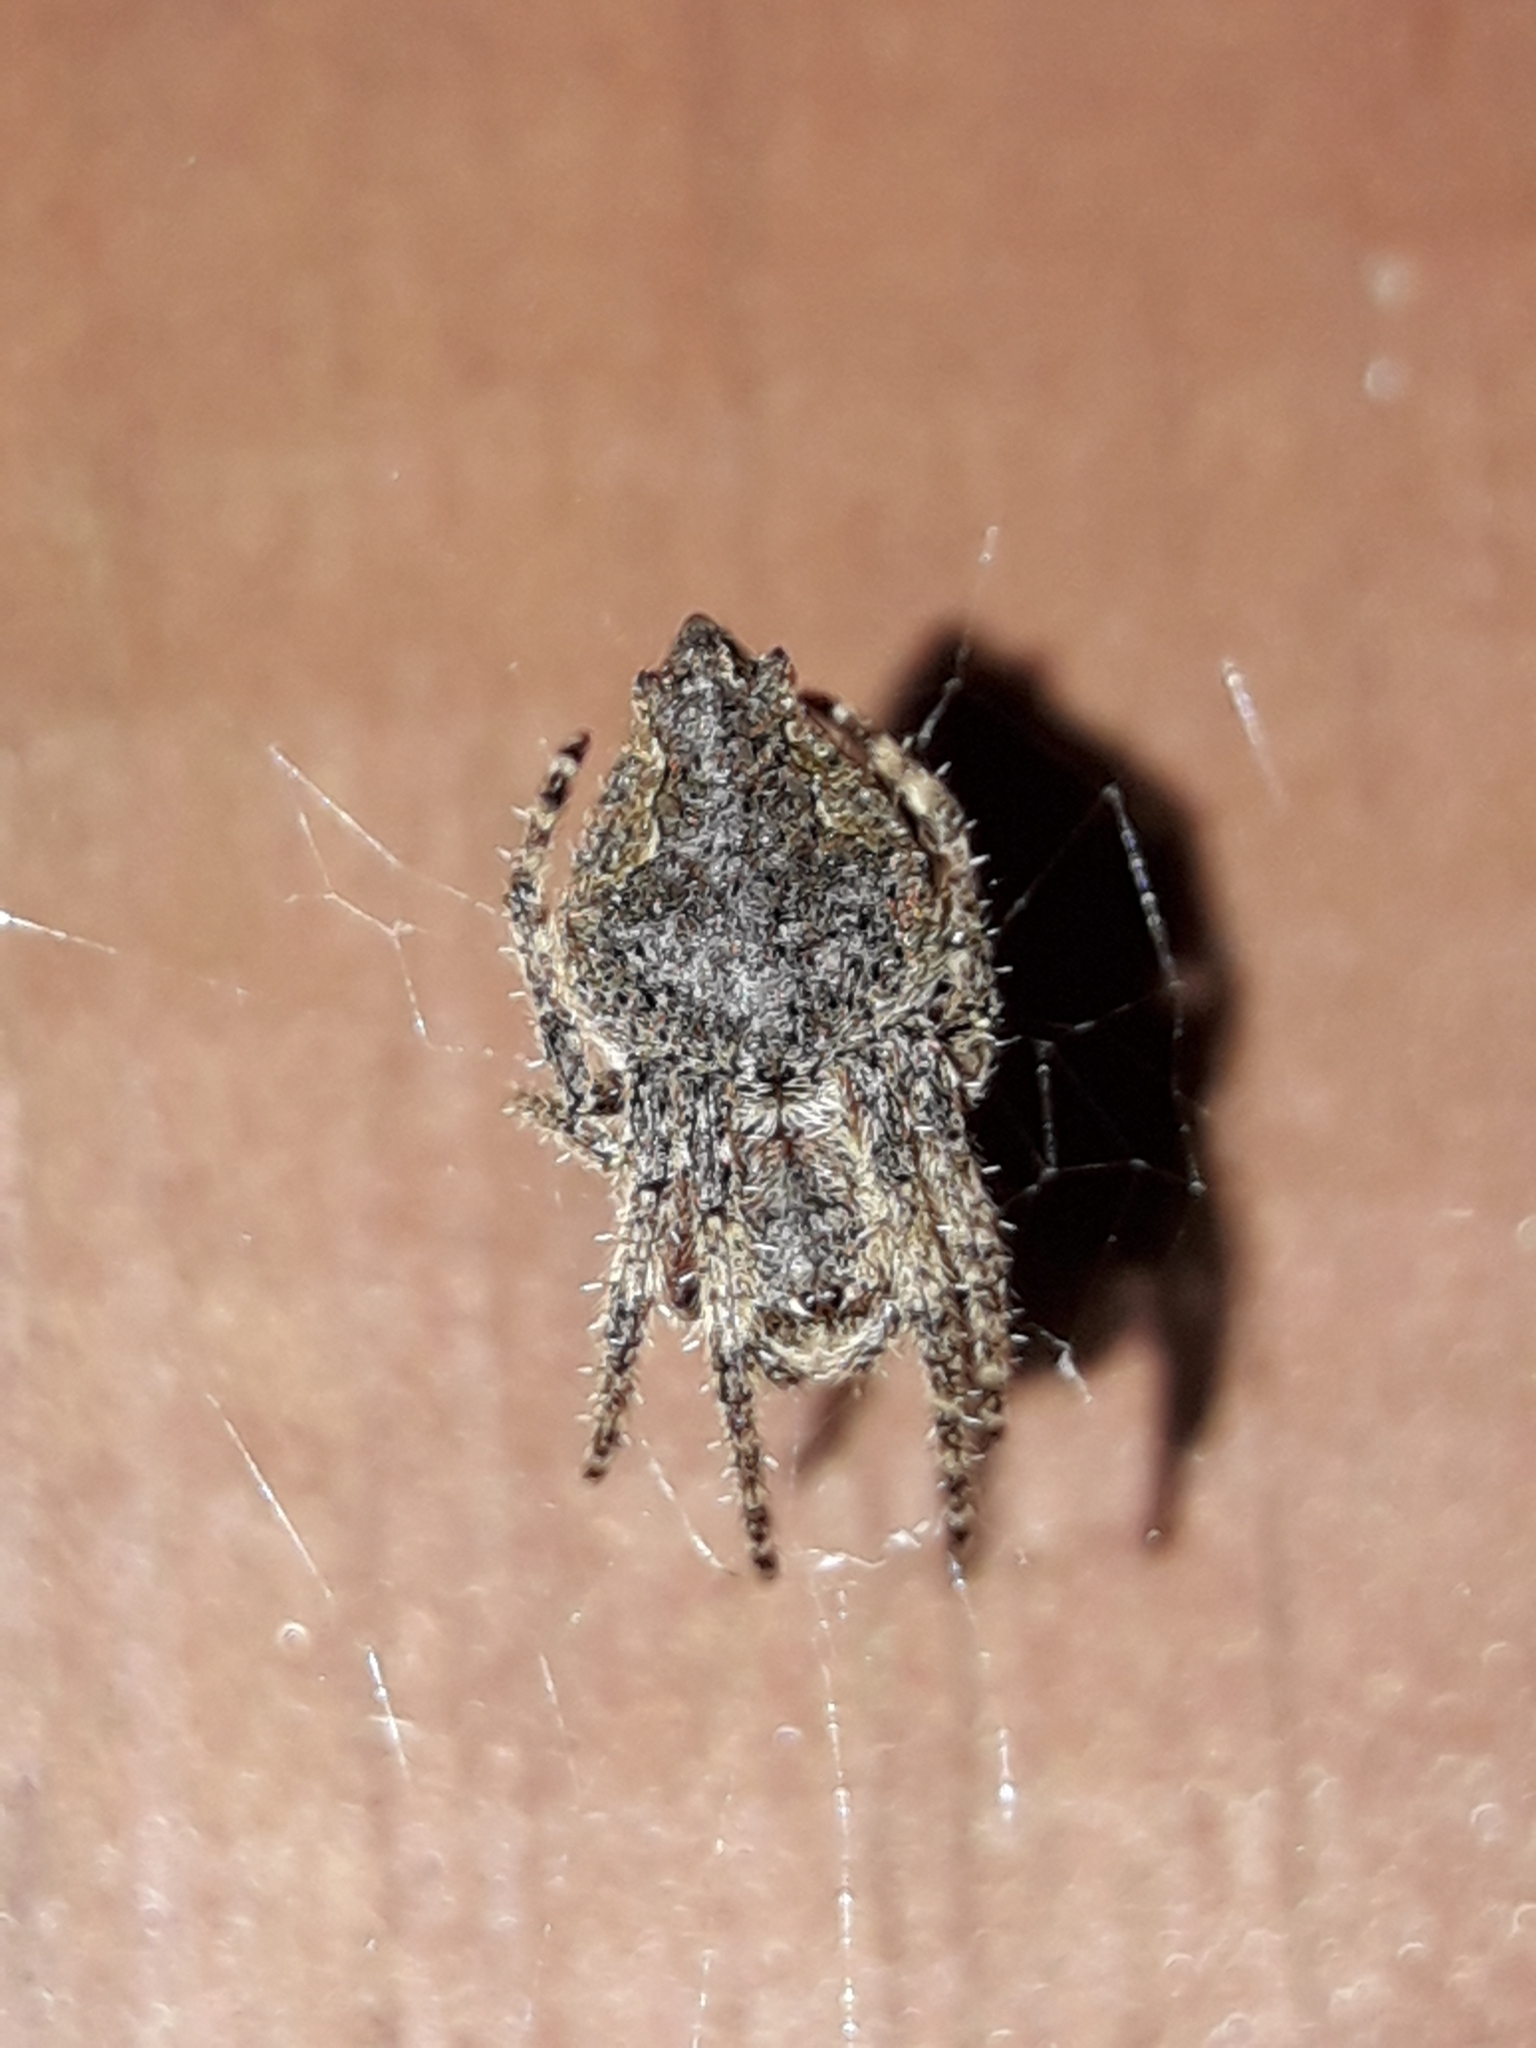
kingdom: Animalia
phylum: Arthropoda
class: Arachnida
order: Araneae
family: Araneidae
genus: Eriophora
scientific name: Eriophora pustulosa
